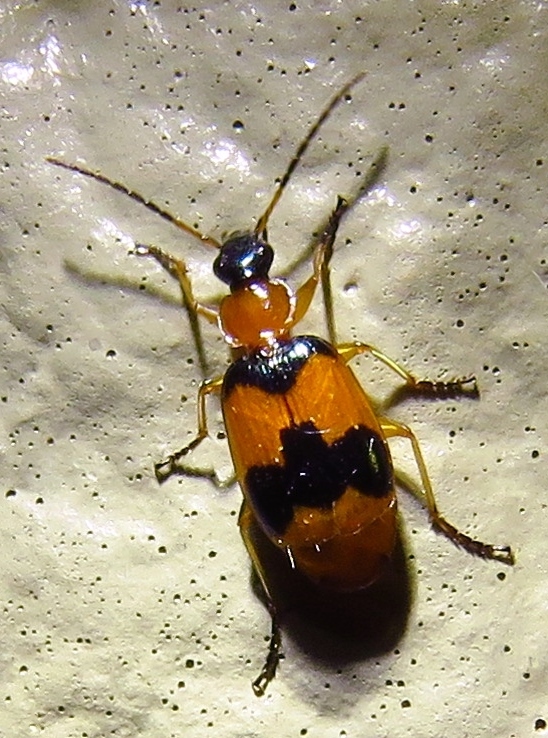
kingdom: Animalia
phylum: Arthropoda
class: Insecta
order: Coleoptera
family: Carabidae
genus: Lebia
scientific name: Lebia pulchella
